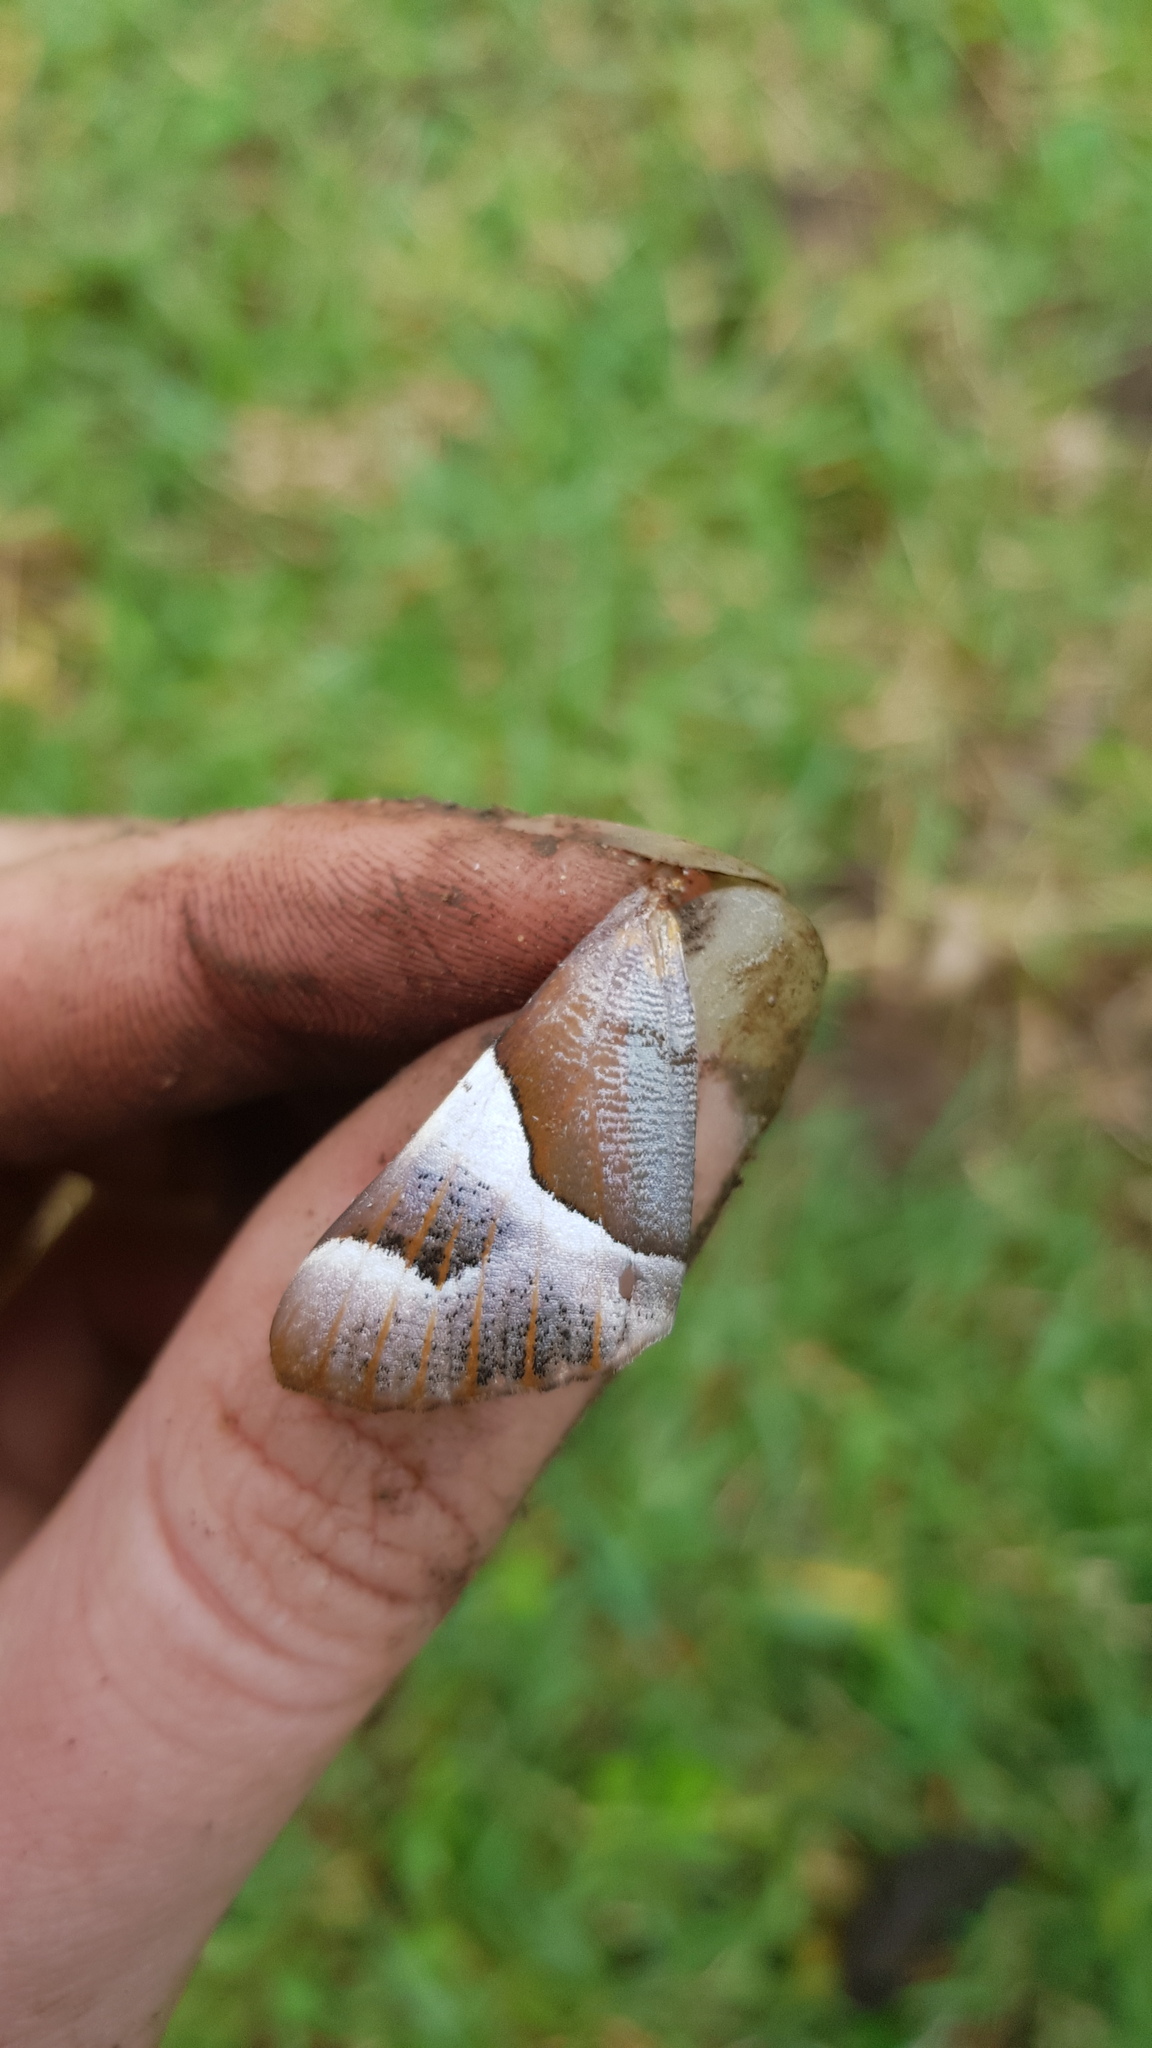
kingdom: Animalia
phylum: Arthropoda
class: Insecta
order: Lepidoptera
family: Geometridae
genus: Niceteria
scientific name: Niceteria macrocosma
